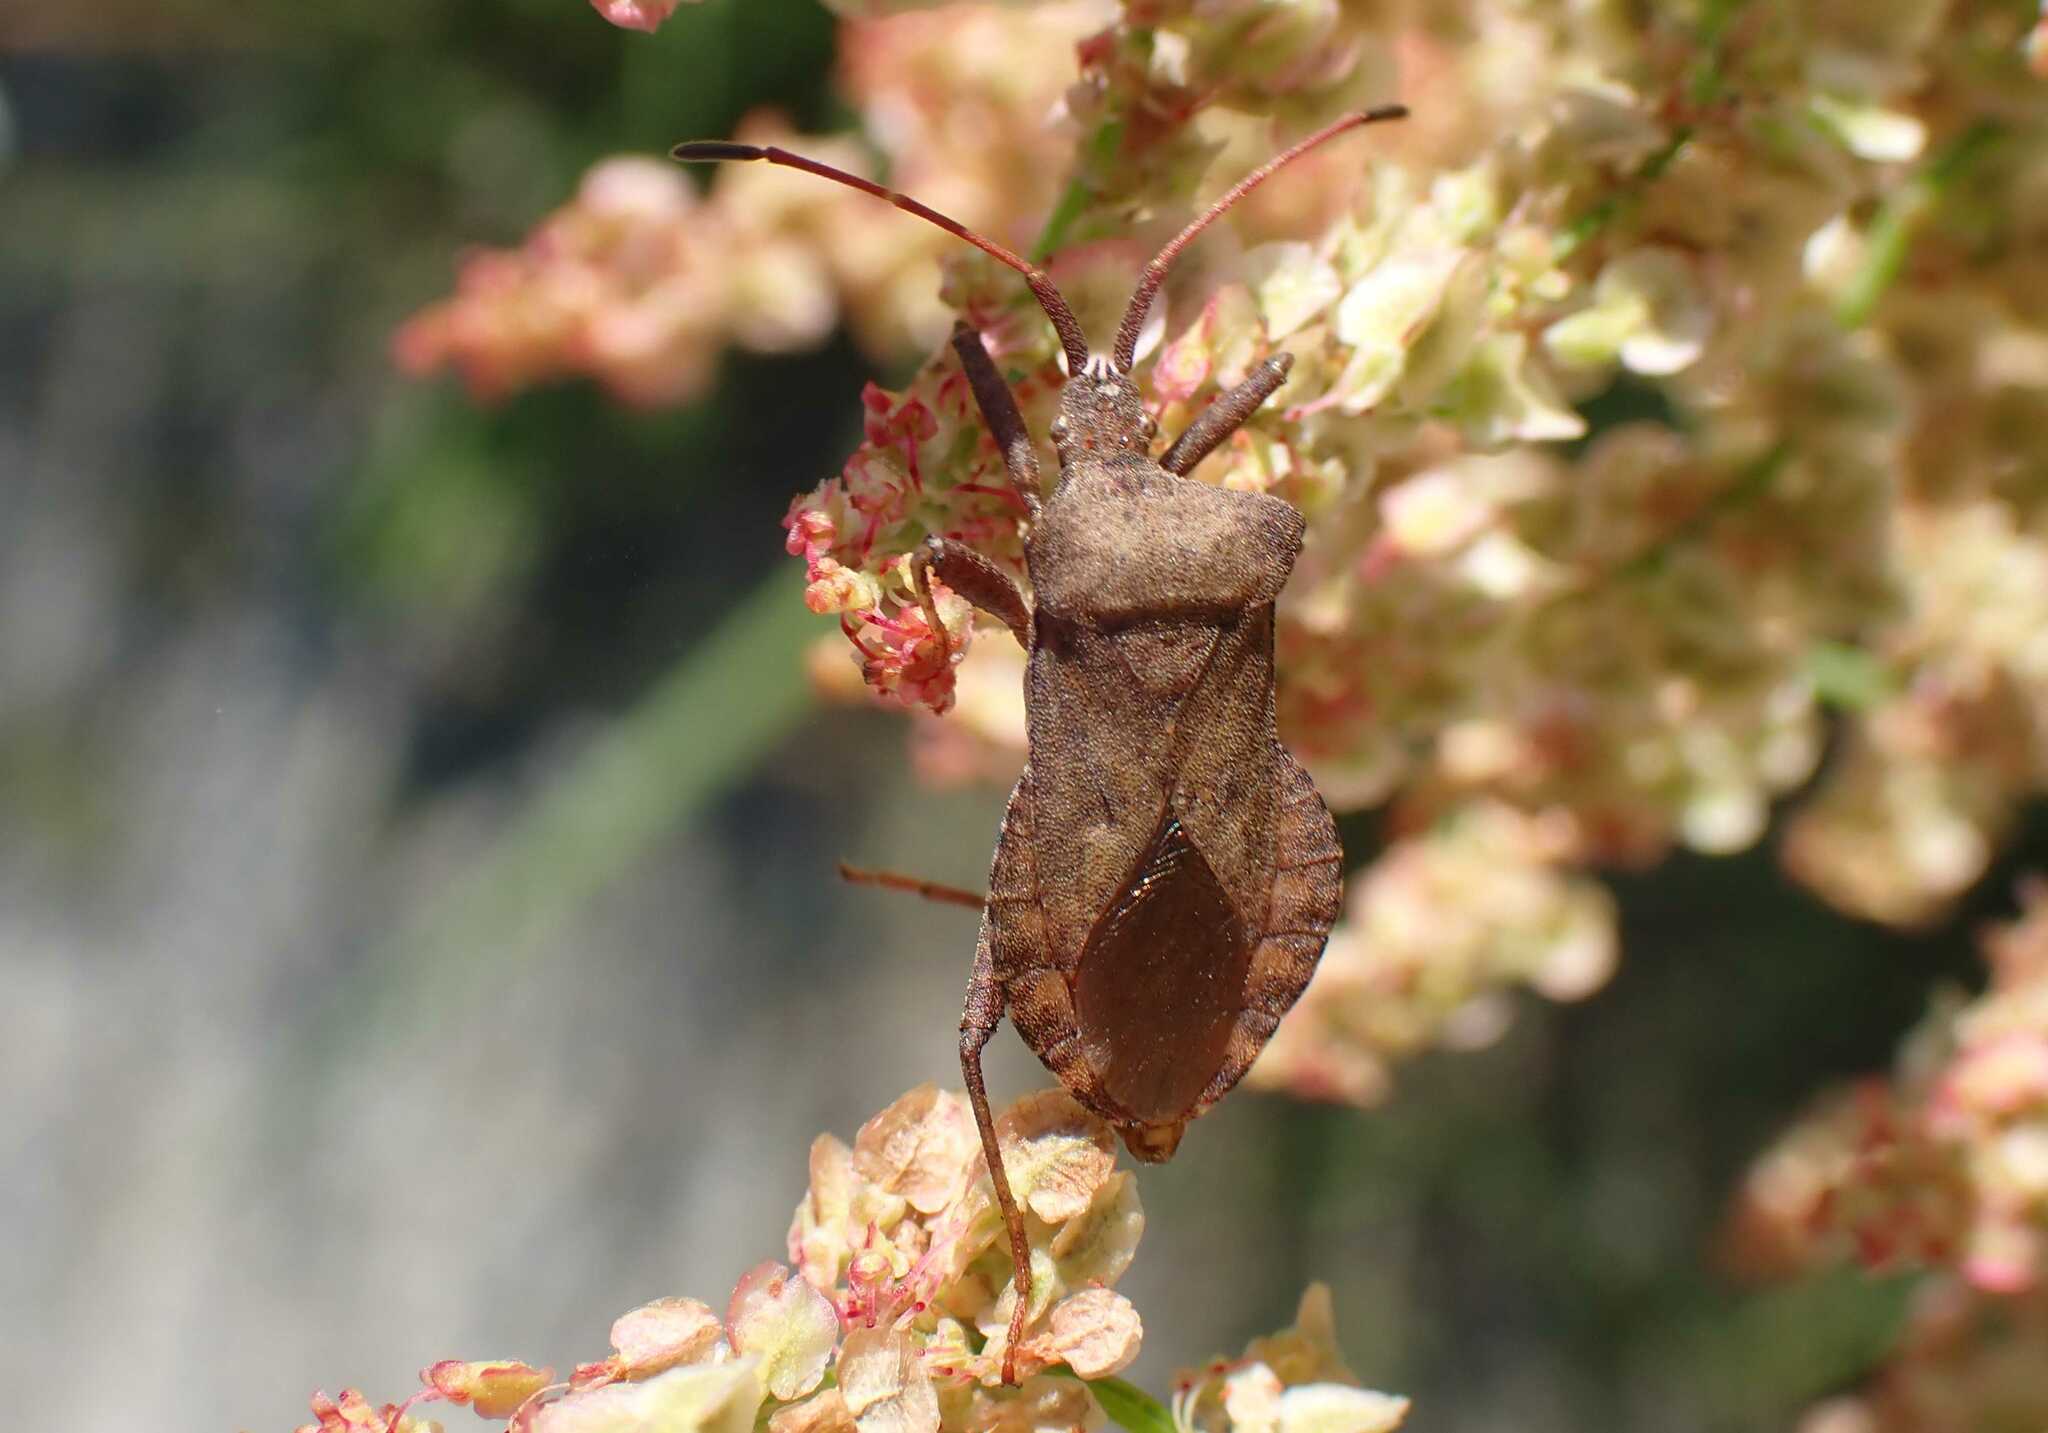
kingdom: Animalia
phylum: Arthropoda
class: Insecta
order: Hemiptera
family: Coreidae
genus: Coreus
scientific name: Coreus marginatus
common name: Dock bug
